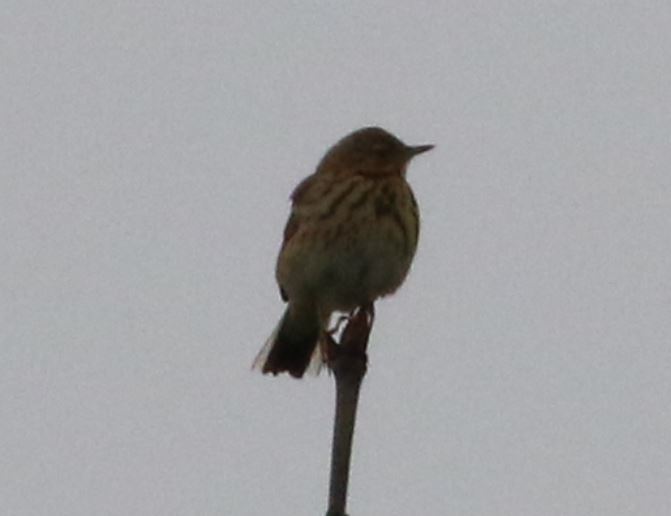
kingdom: Animalia
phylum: Chordata
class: Aves
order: Passeriformes
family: Motacillidae
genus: Anthus
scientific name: Anthus trivialis
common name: Tree pipit
